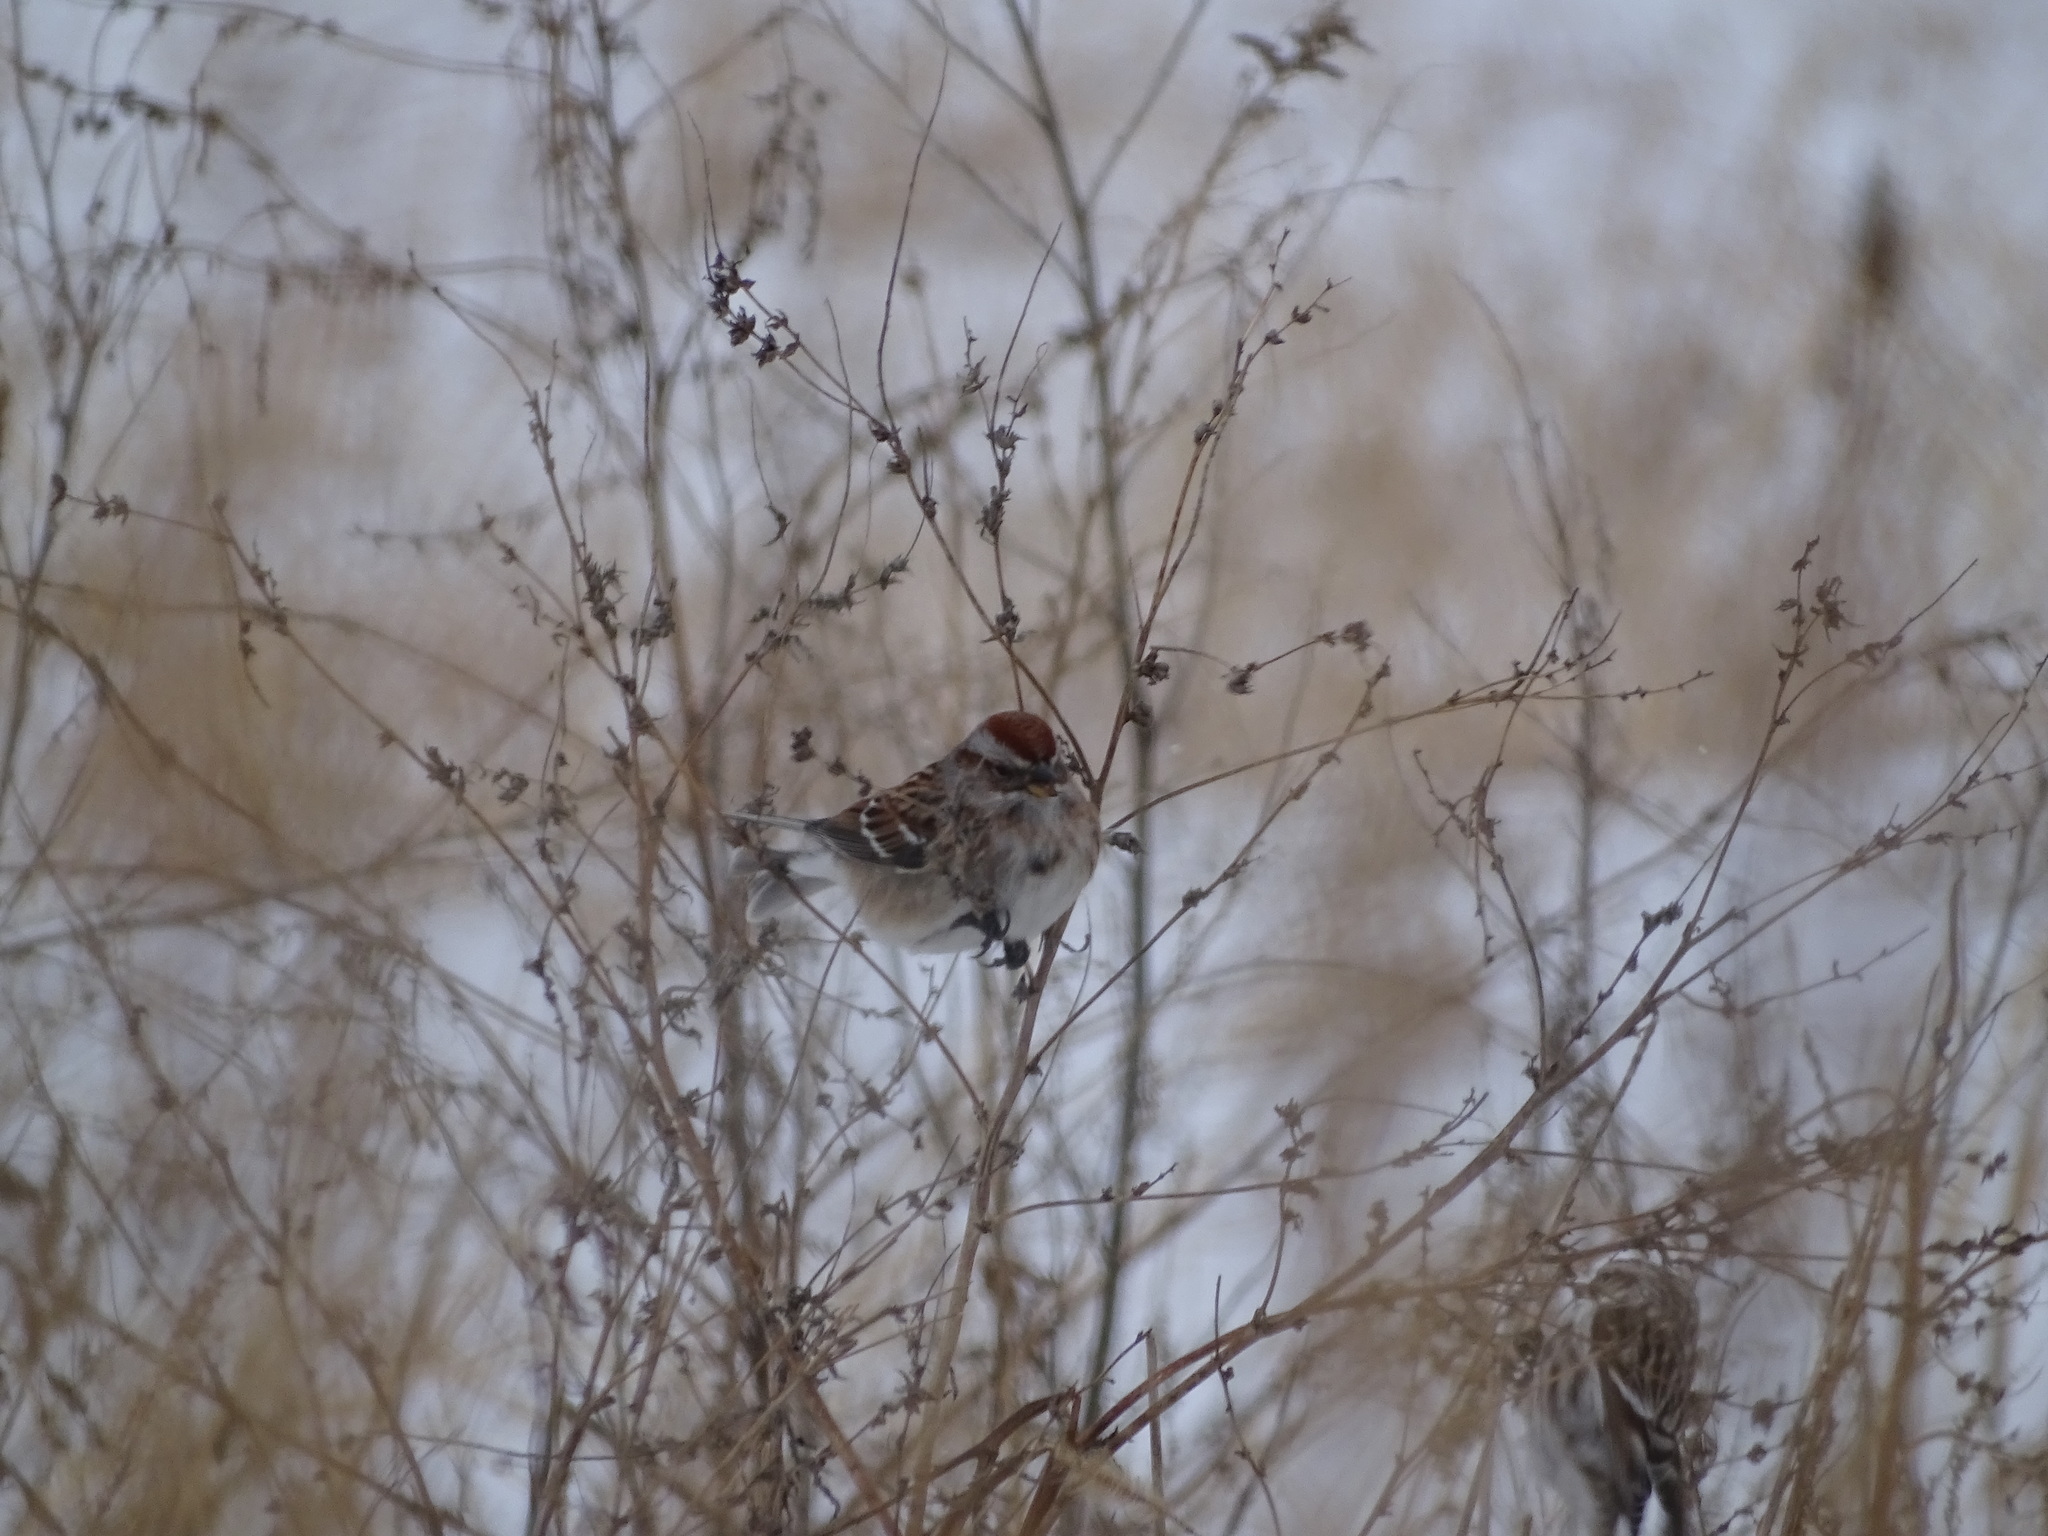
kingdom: Animalia
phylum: Chordata
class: Aves
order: Passeriformes
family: Passerellidae
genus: Spizelloides
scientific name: Spizelloides arborea
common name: American tree sparrow
